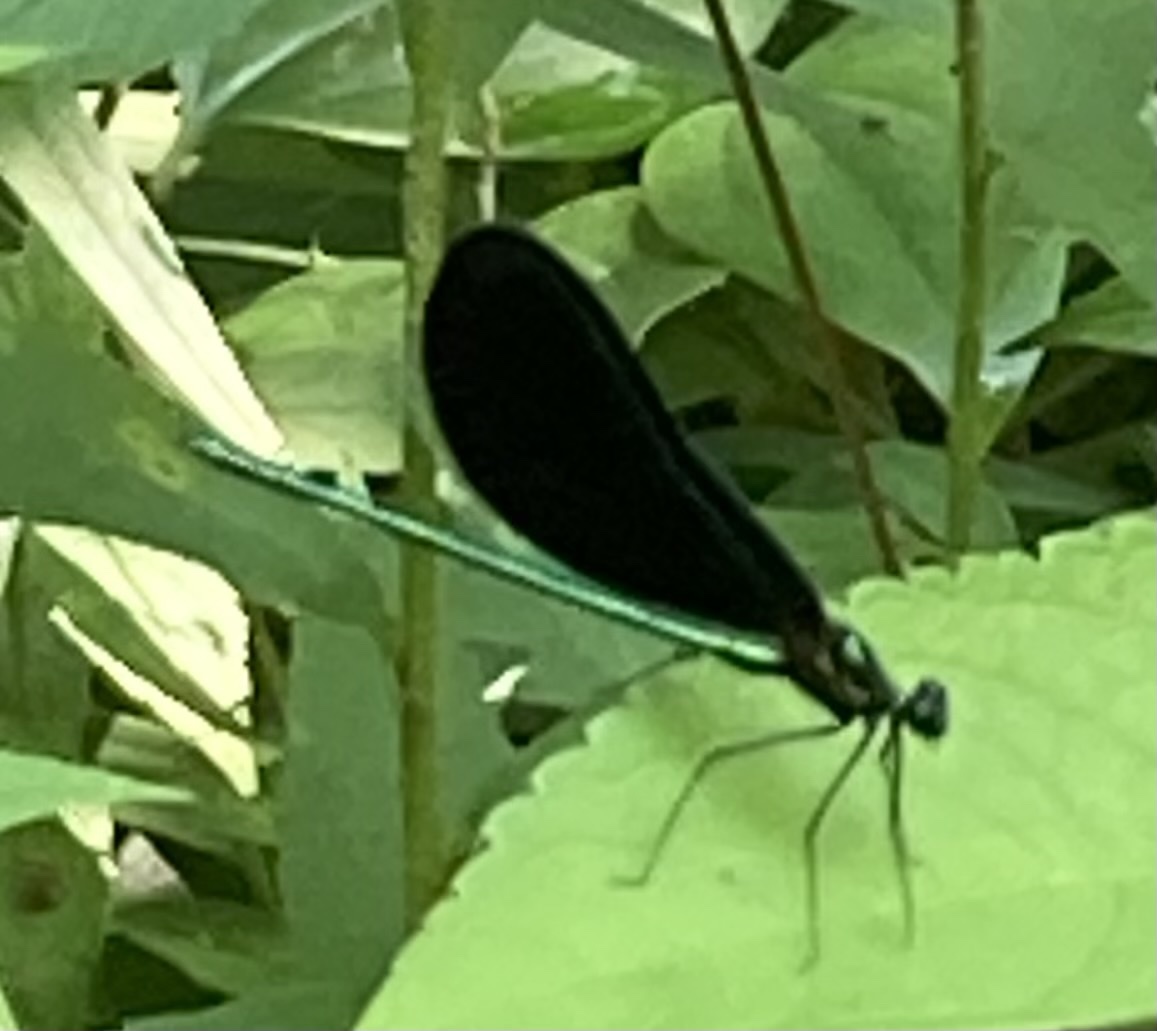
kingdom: Animalia
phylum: Arthropoda
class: Insecta
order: Odonata
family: Calopterygidae
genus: Calopteryx
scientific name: Calopteryx maculata
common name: Ebony jewelwing
